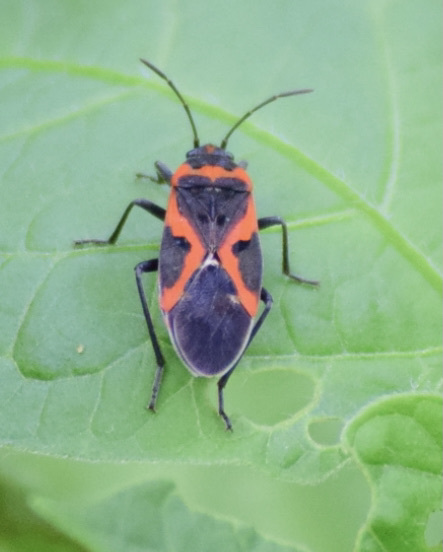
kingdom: Animalia
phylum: Arthropoda
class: Insecta
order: Hemiptera
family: Lygaeidae
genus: Lygaeus
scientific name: Lygaeus kalmii
